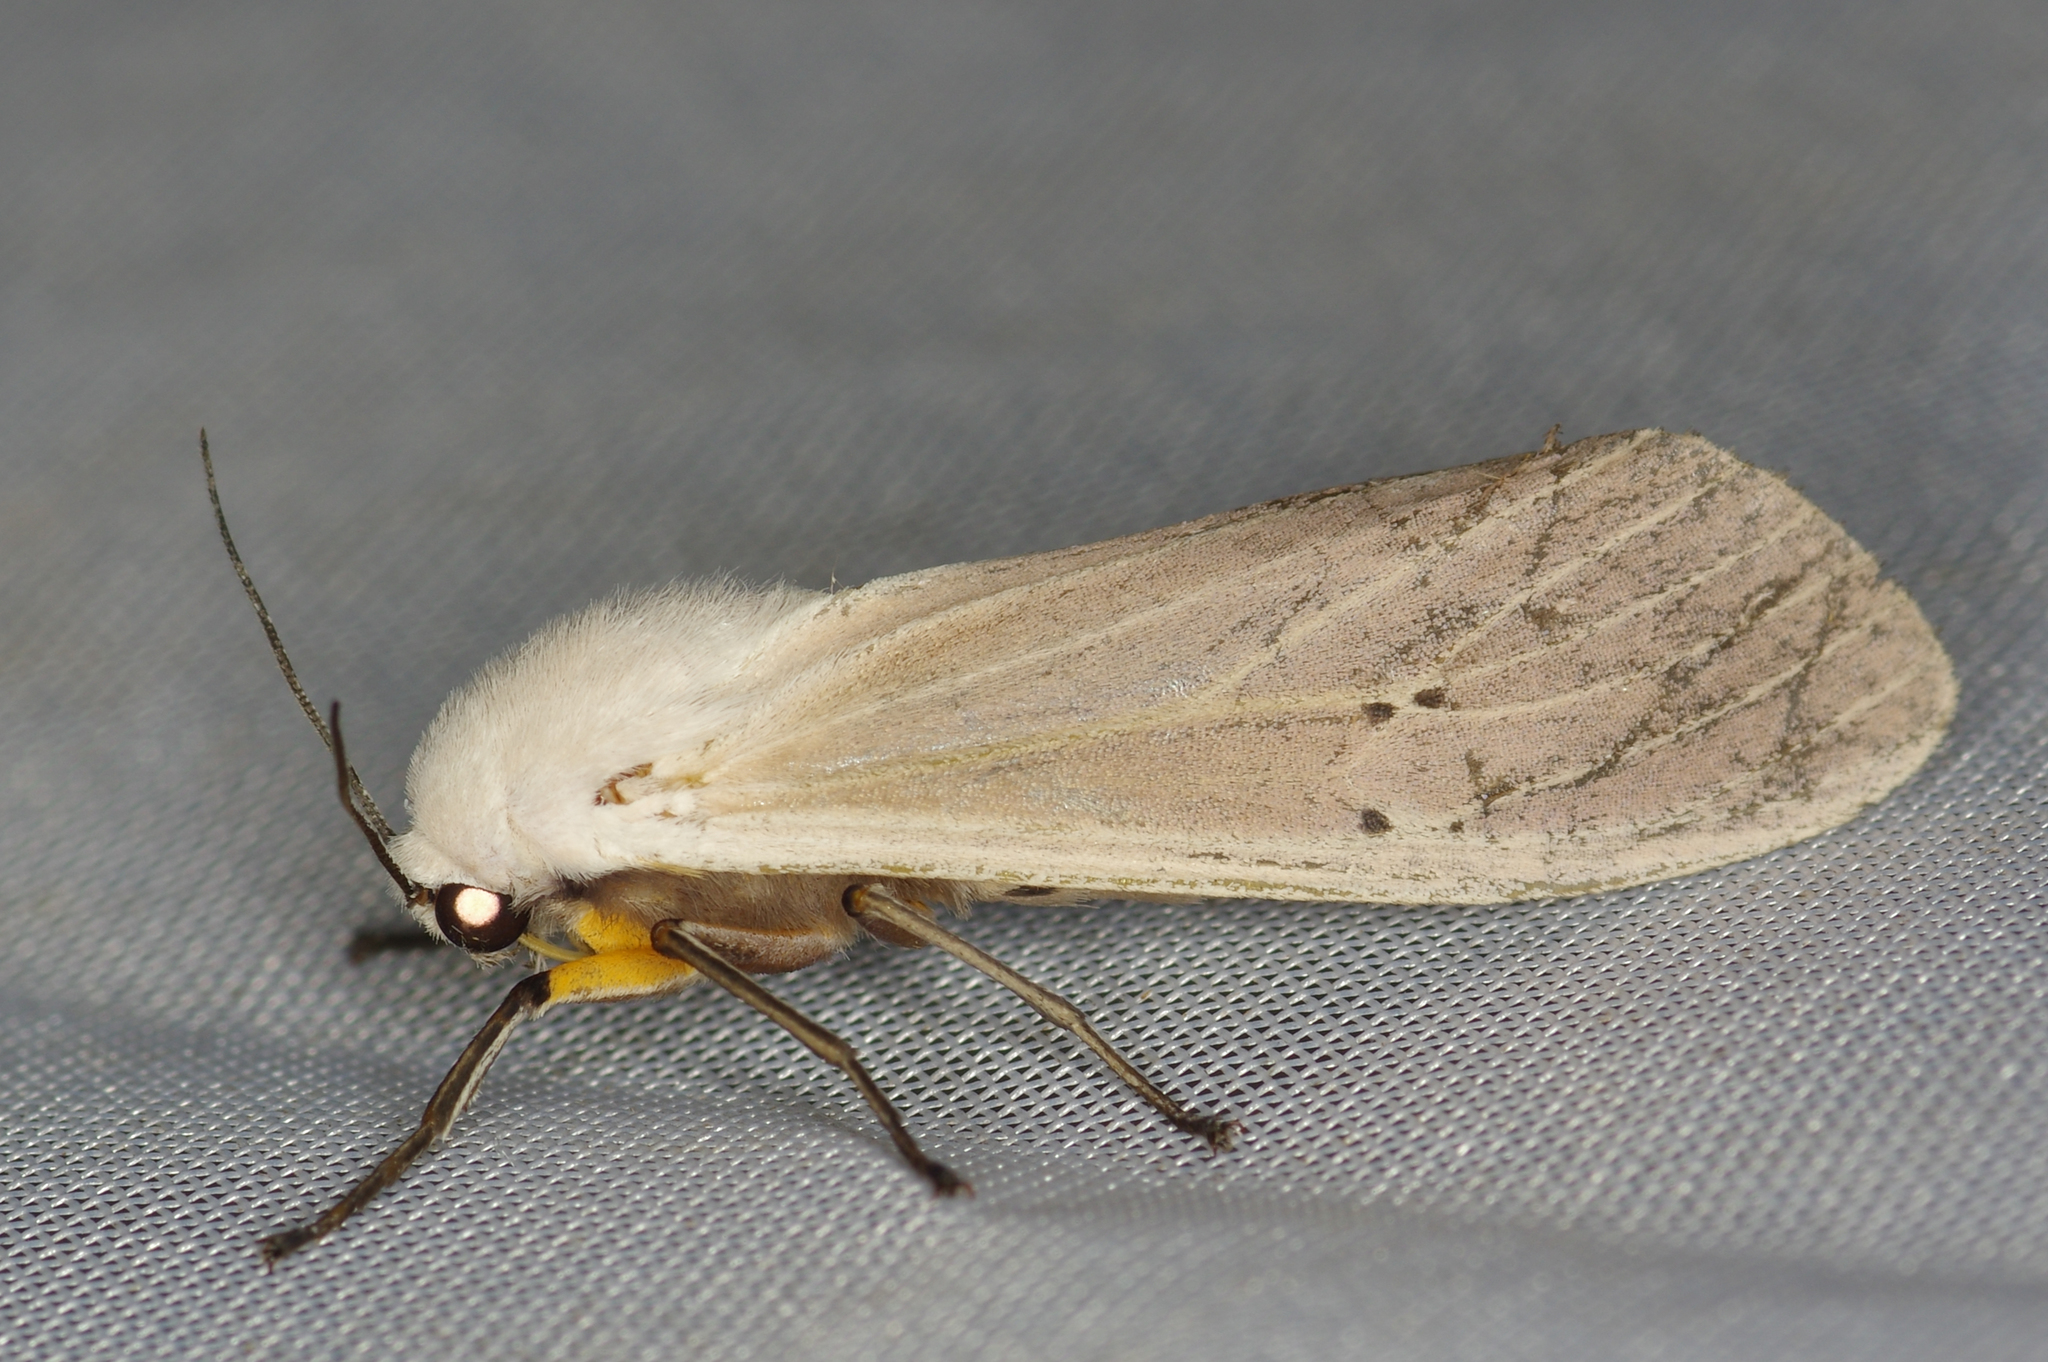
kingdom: Animalia
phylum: Arthropoda
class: Insecta
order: Lepidoptera
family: Erebidae
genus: Creatonotos
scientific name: Creatonotos transiens
